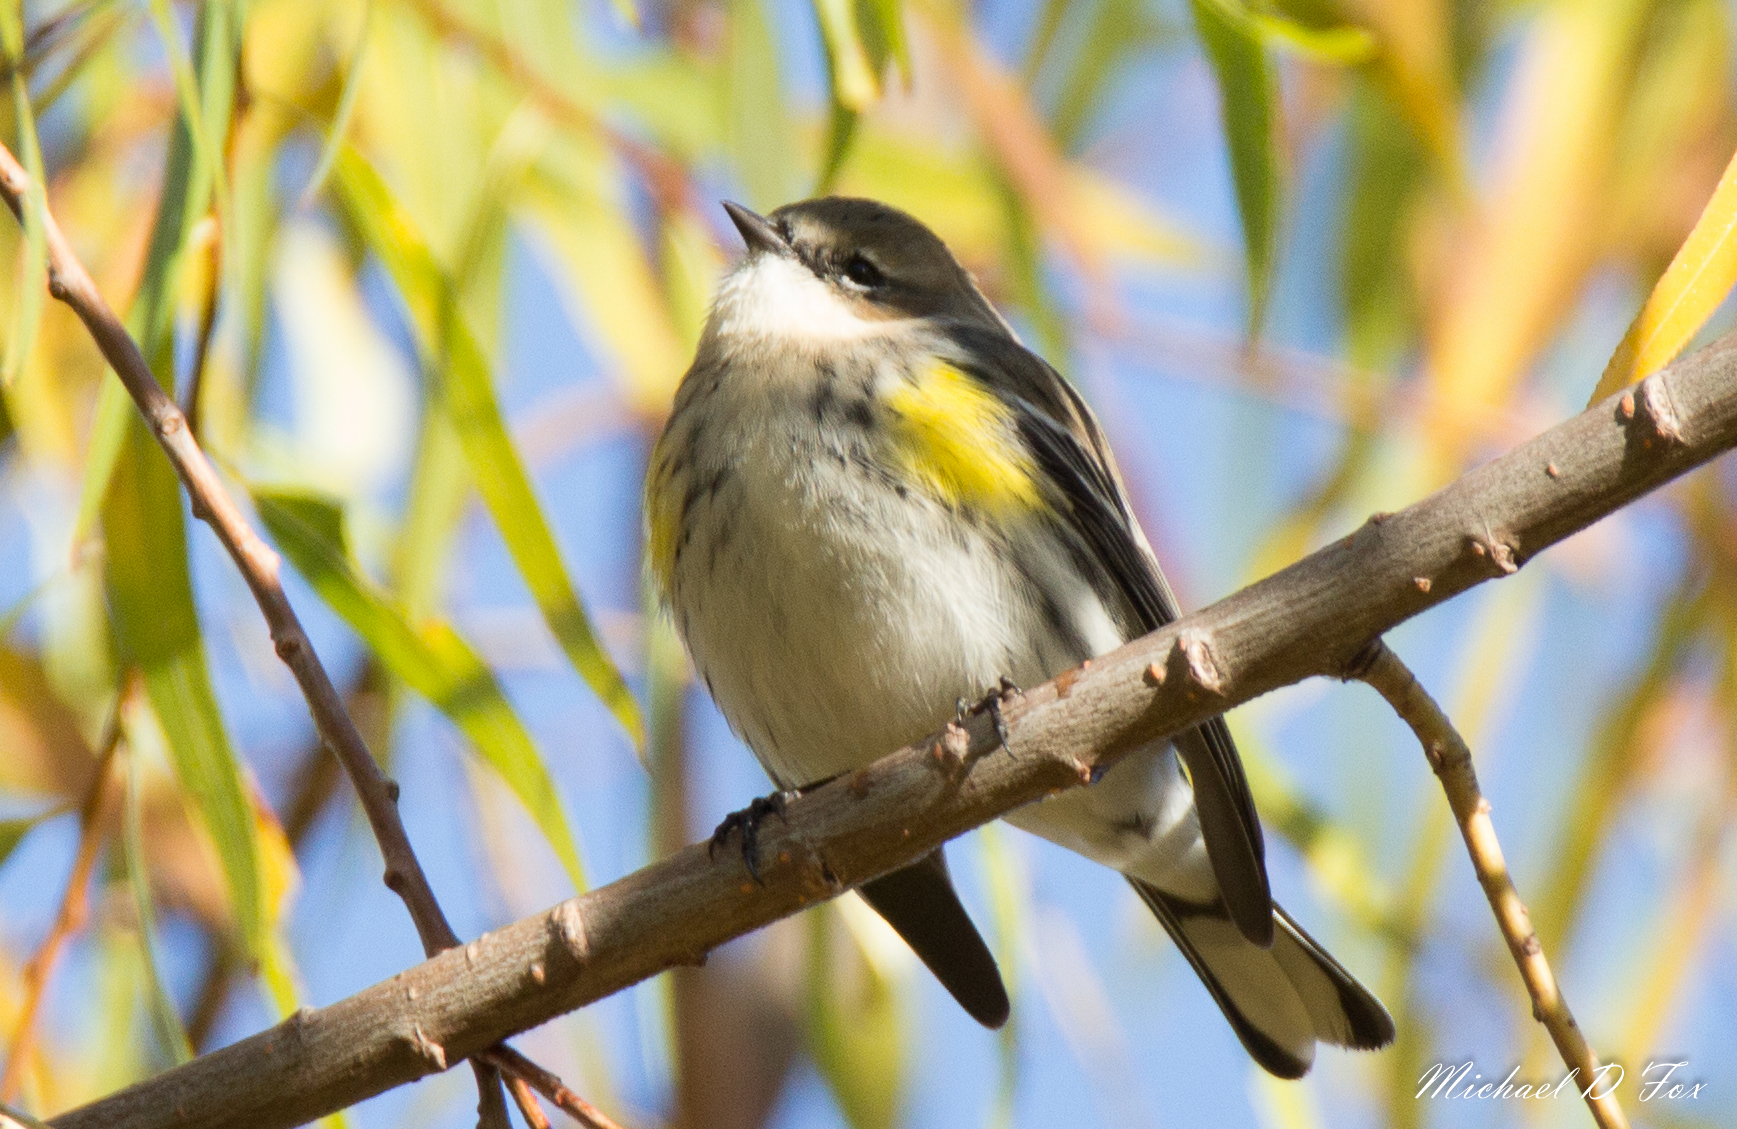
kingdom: Animalia
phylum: Chordata
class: Aves
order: Passeriformes
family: Parulidae
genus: Setophaga
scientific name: Setophaga coronata
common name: Myrtle warbler
